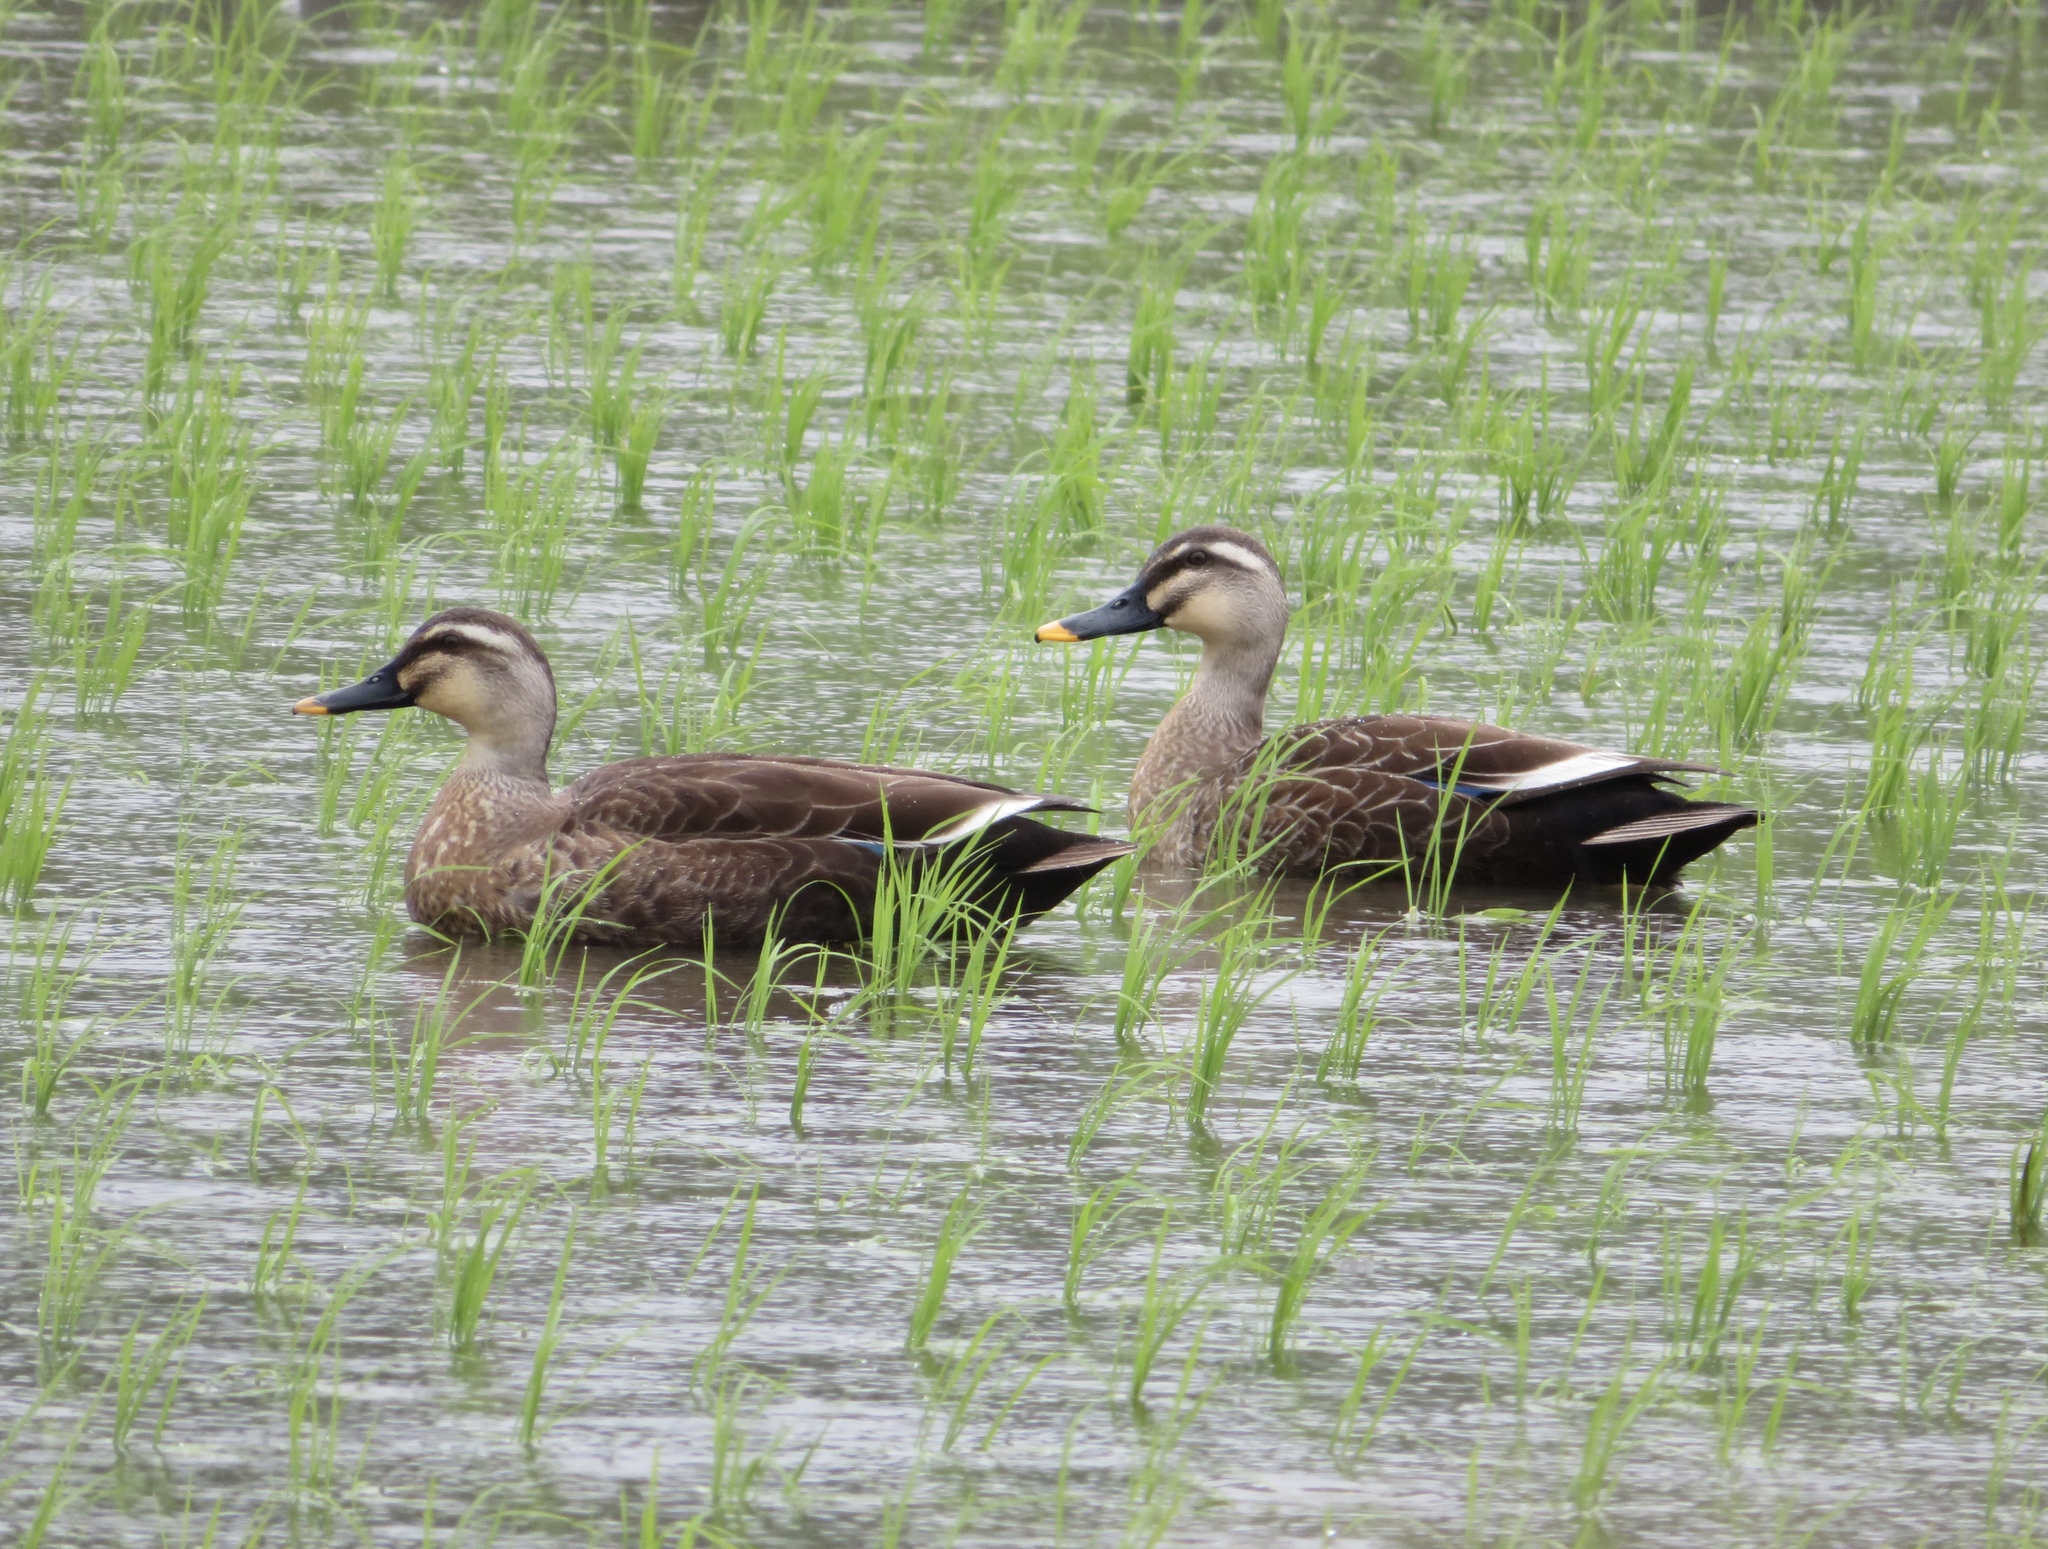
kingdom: Animalia
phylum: Chordata
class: Aves
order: Anseriformes
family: Anatidae
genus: Anas
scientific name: Anas zonorhyncha
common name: Eastern spot-billed duck
